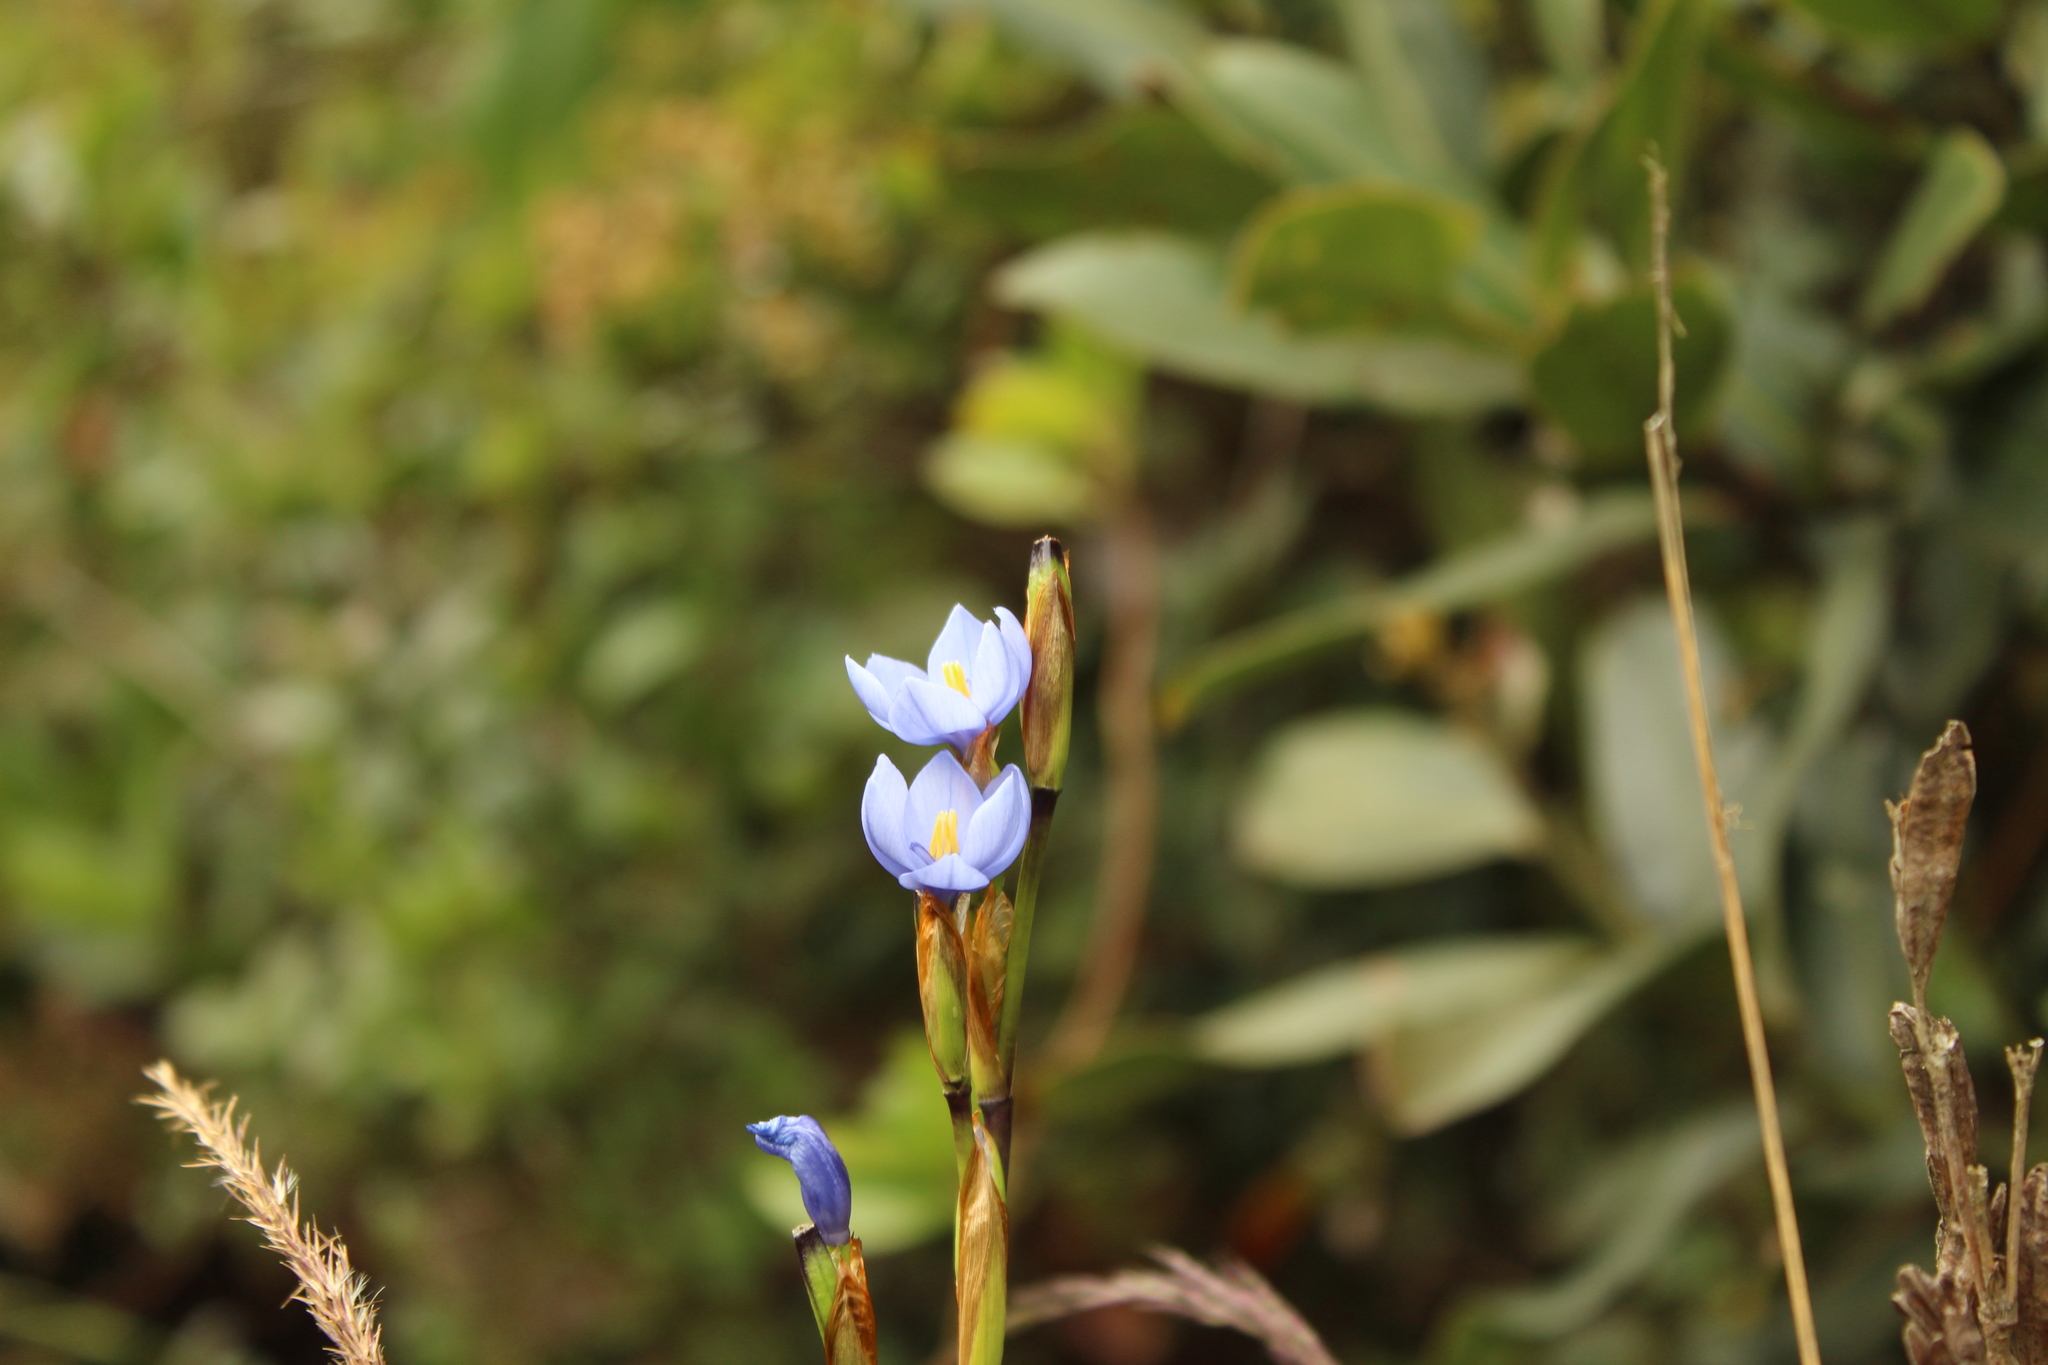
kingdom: Plantae
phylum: Tracheophyta
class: Liliopsida
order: Asparagales
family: Iridaceae
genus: Orthrosanthus
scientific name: Orthrosanthus chimboracensis
